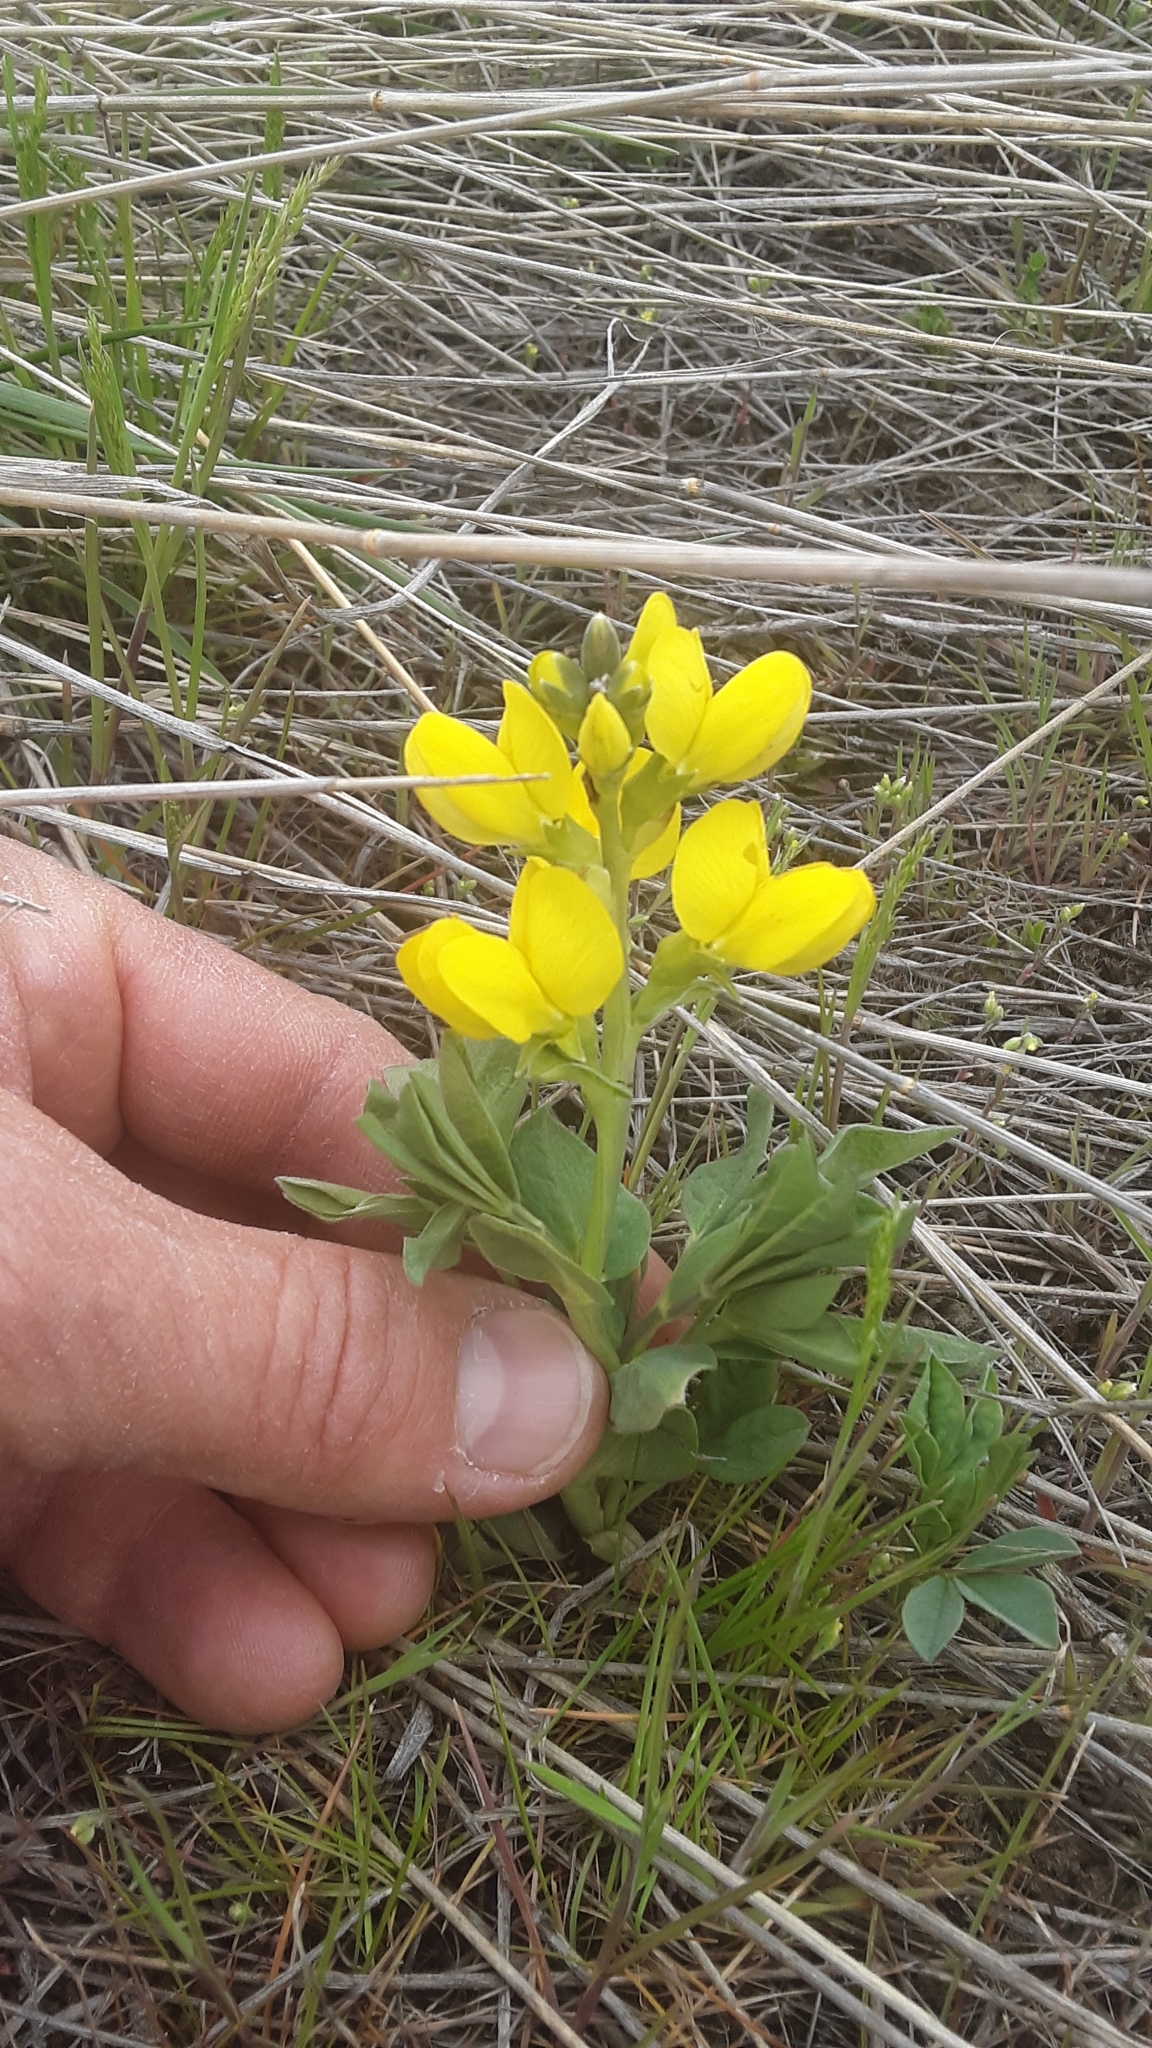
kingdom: Plantae
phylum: Tracheophyta
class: Magnoliopsida
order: Fabales
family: Fabaceae
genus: Thermopsis
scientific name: Thermopsis rhombifolia
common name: Circle-pod-pea
